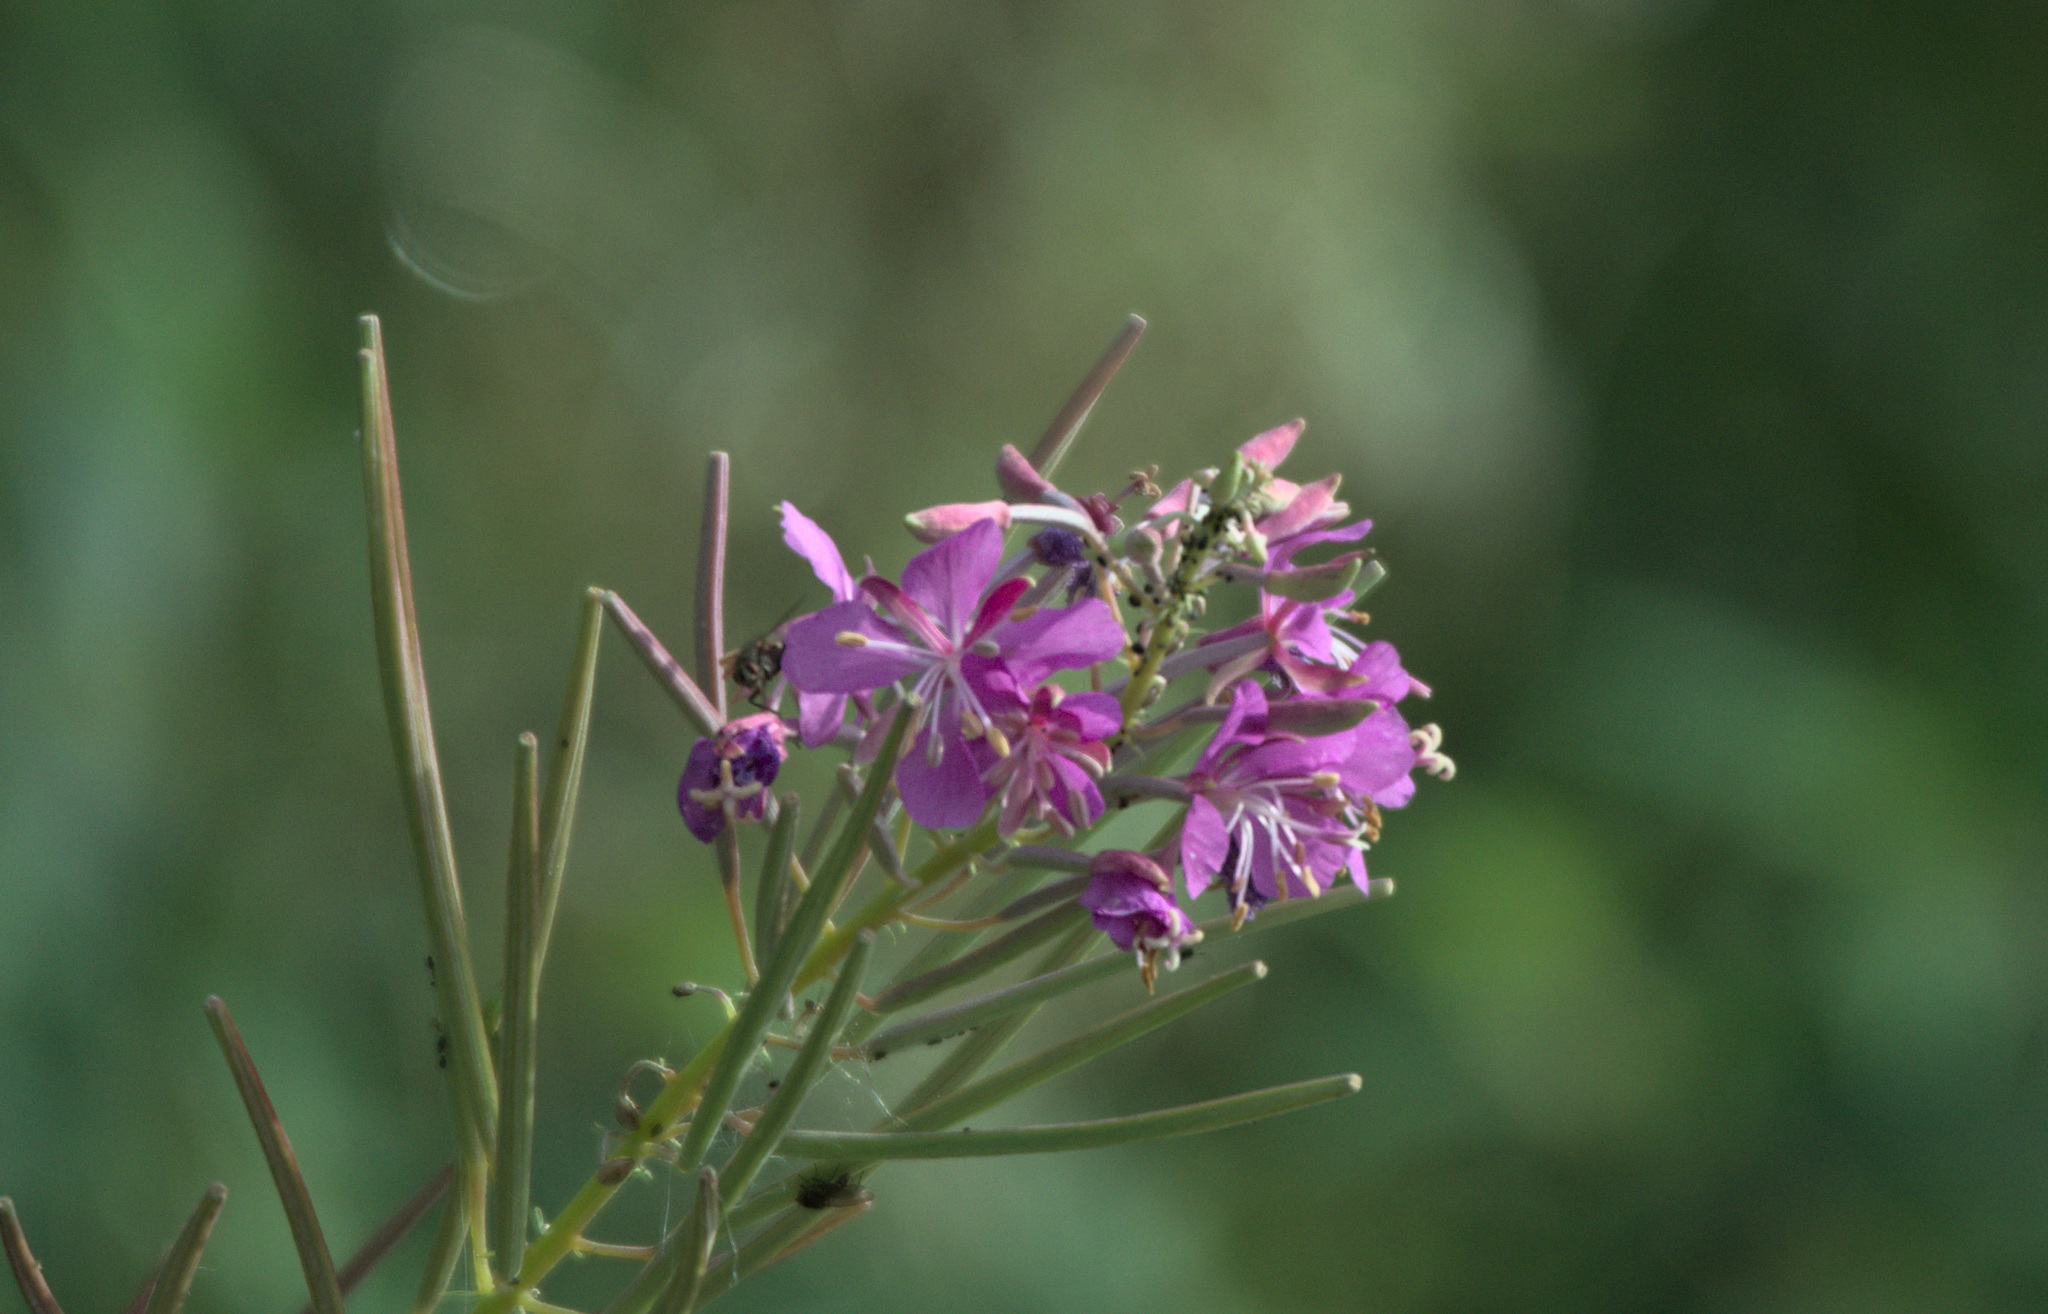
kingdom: Plantae
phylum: Tracheophyta
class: Magnoliopsida
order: Myrtales
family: Onagraceae
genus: Chamaenerion
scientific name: Chamaenerion angustifolium
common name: Fireweed
